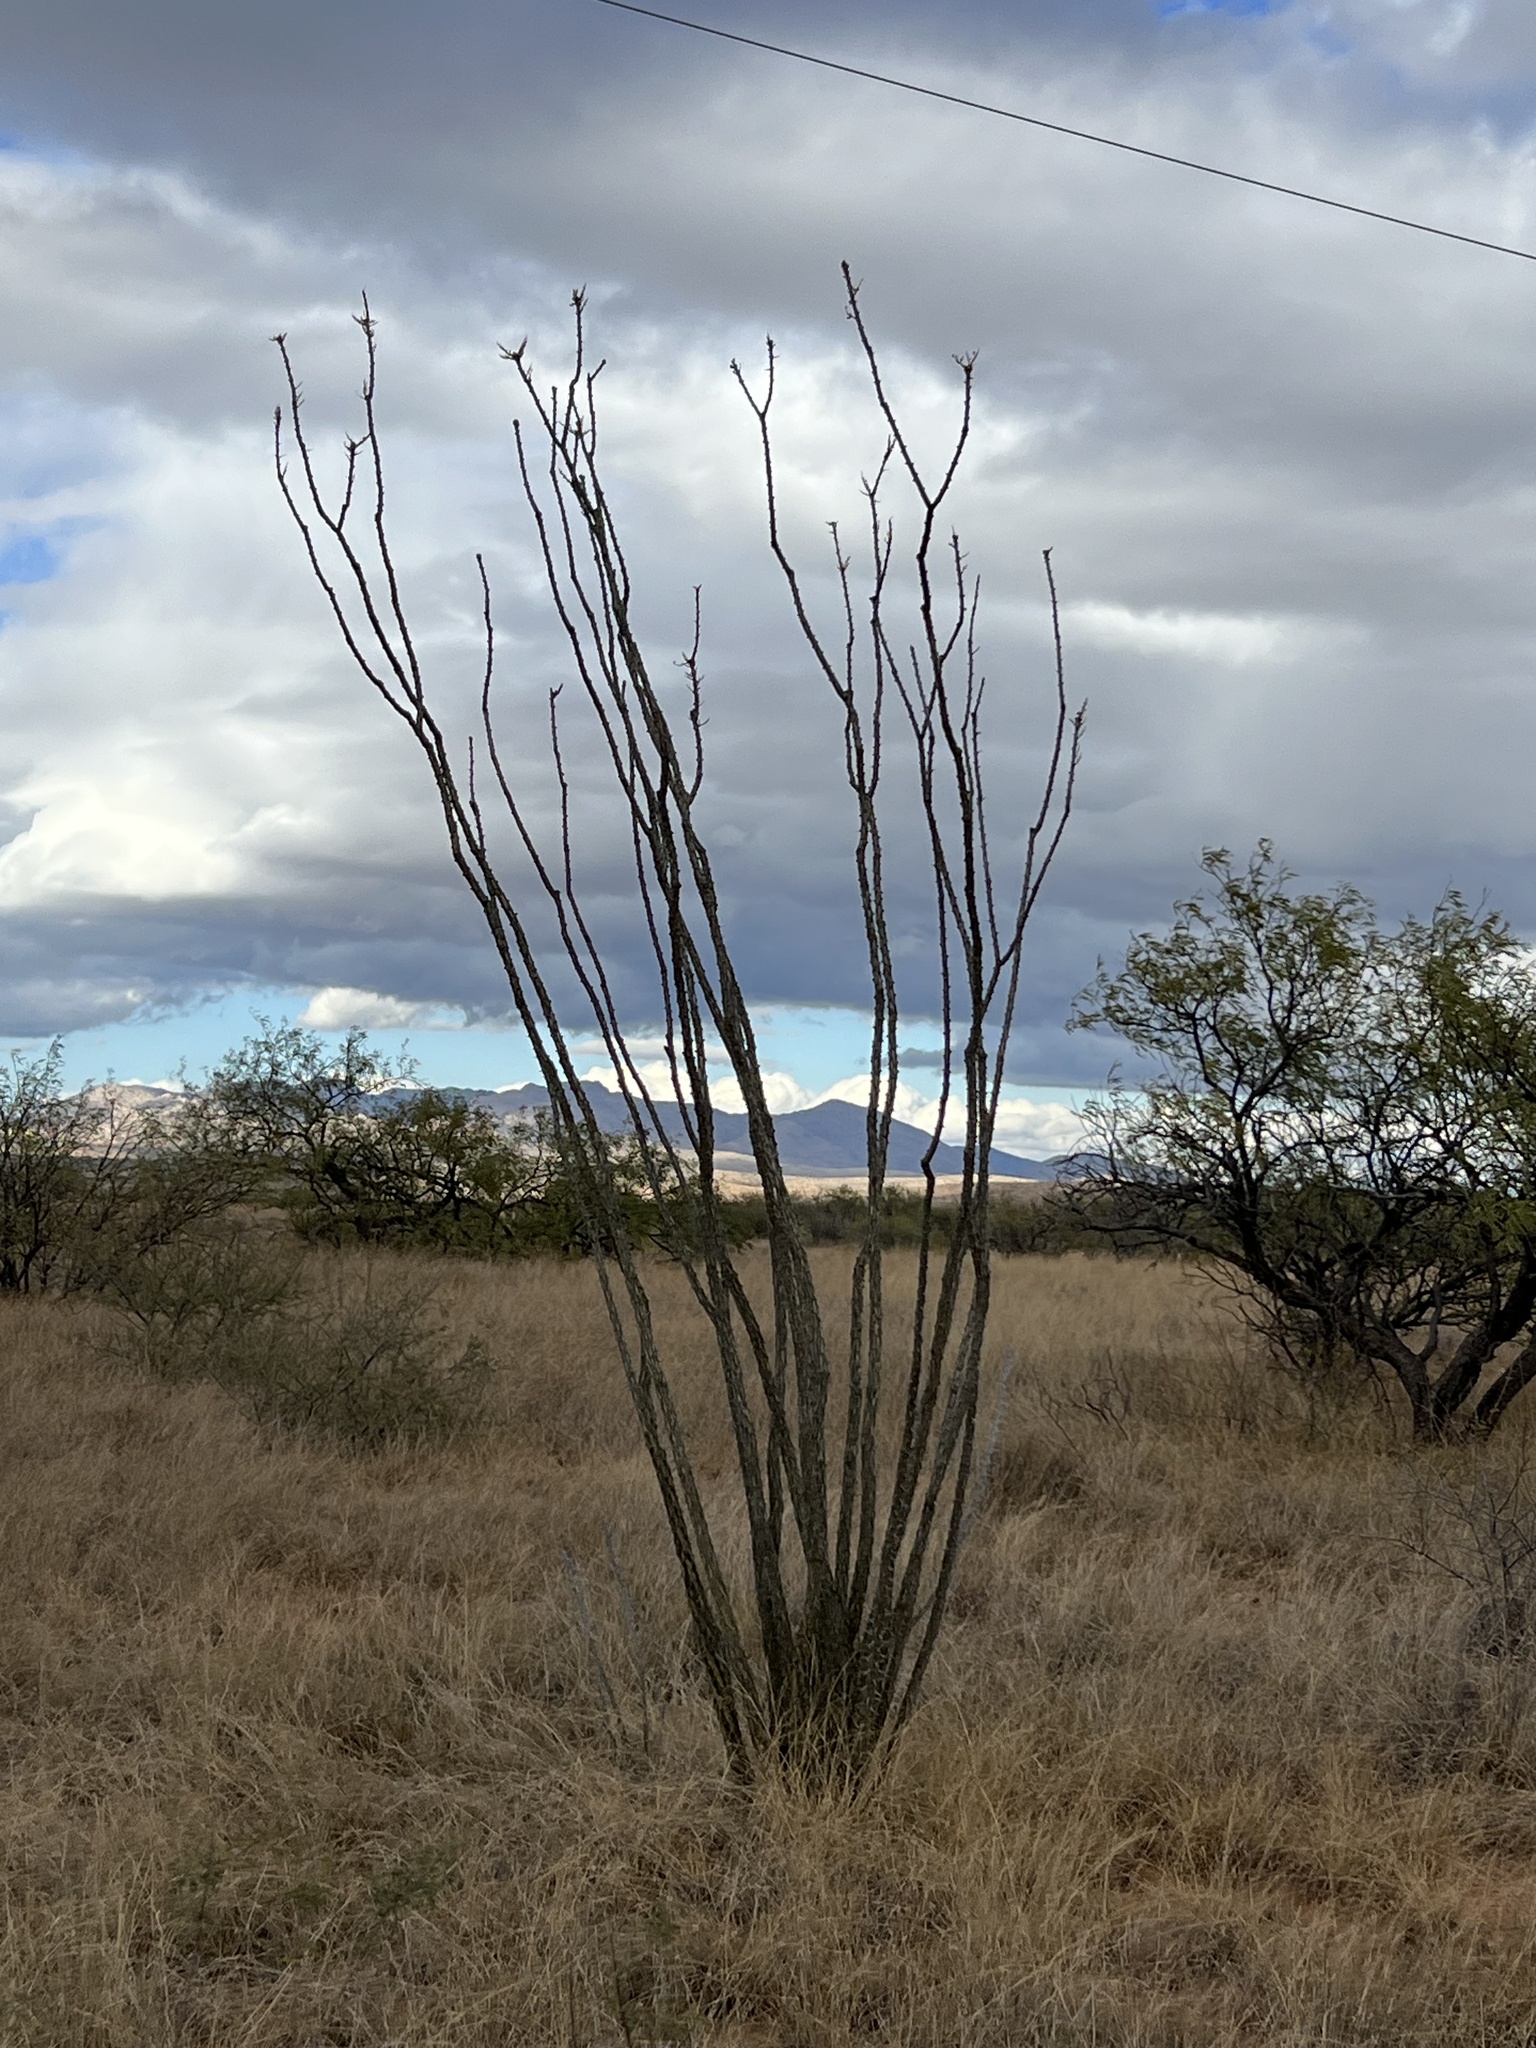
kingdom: Plantae
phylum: Tracheophyta
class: Magnoliopsida
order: Ericales
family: Fouquieriaceae
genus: Fouquieria
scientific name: Fouquieria splendens
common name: Vine-cactus
